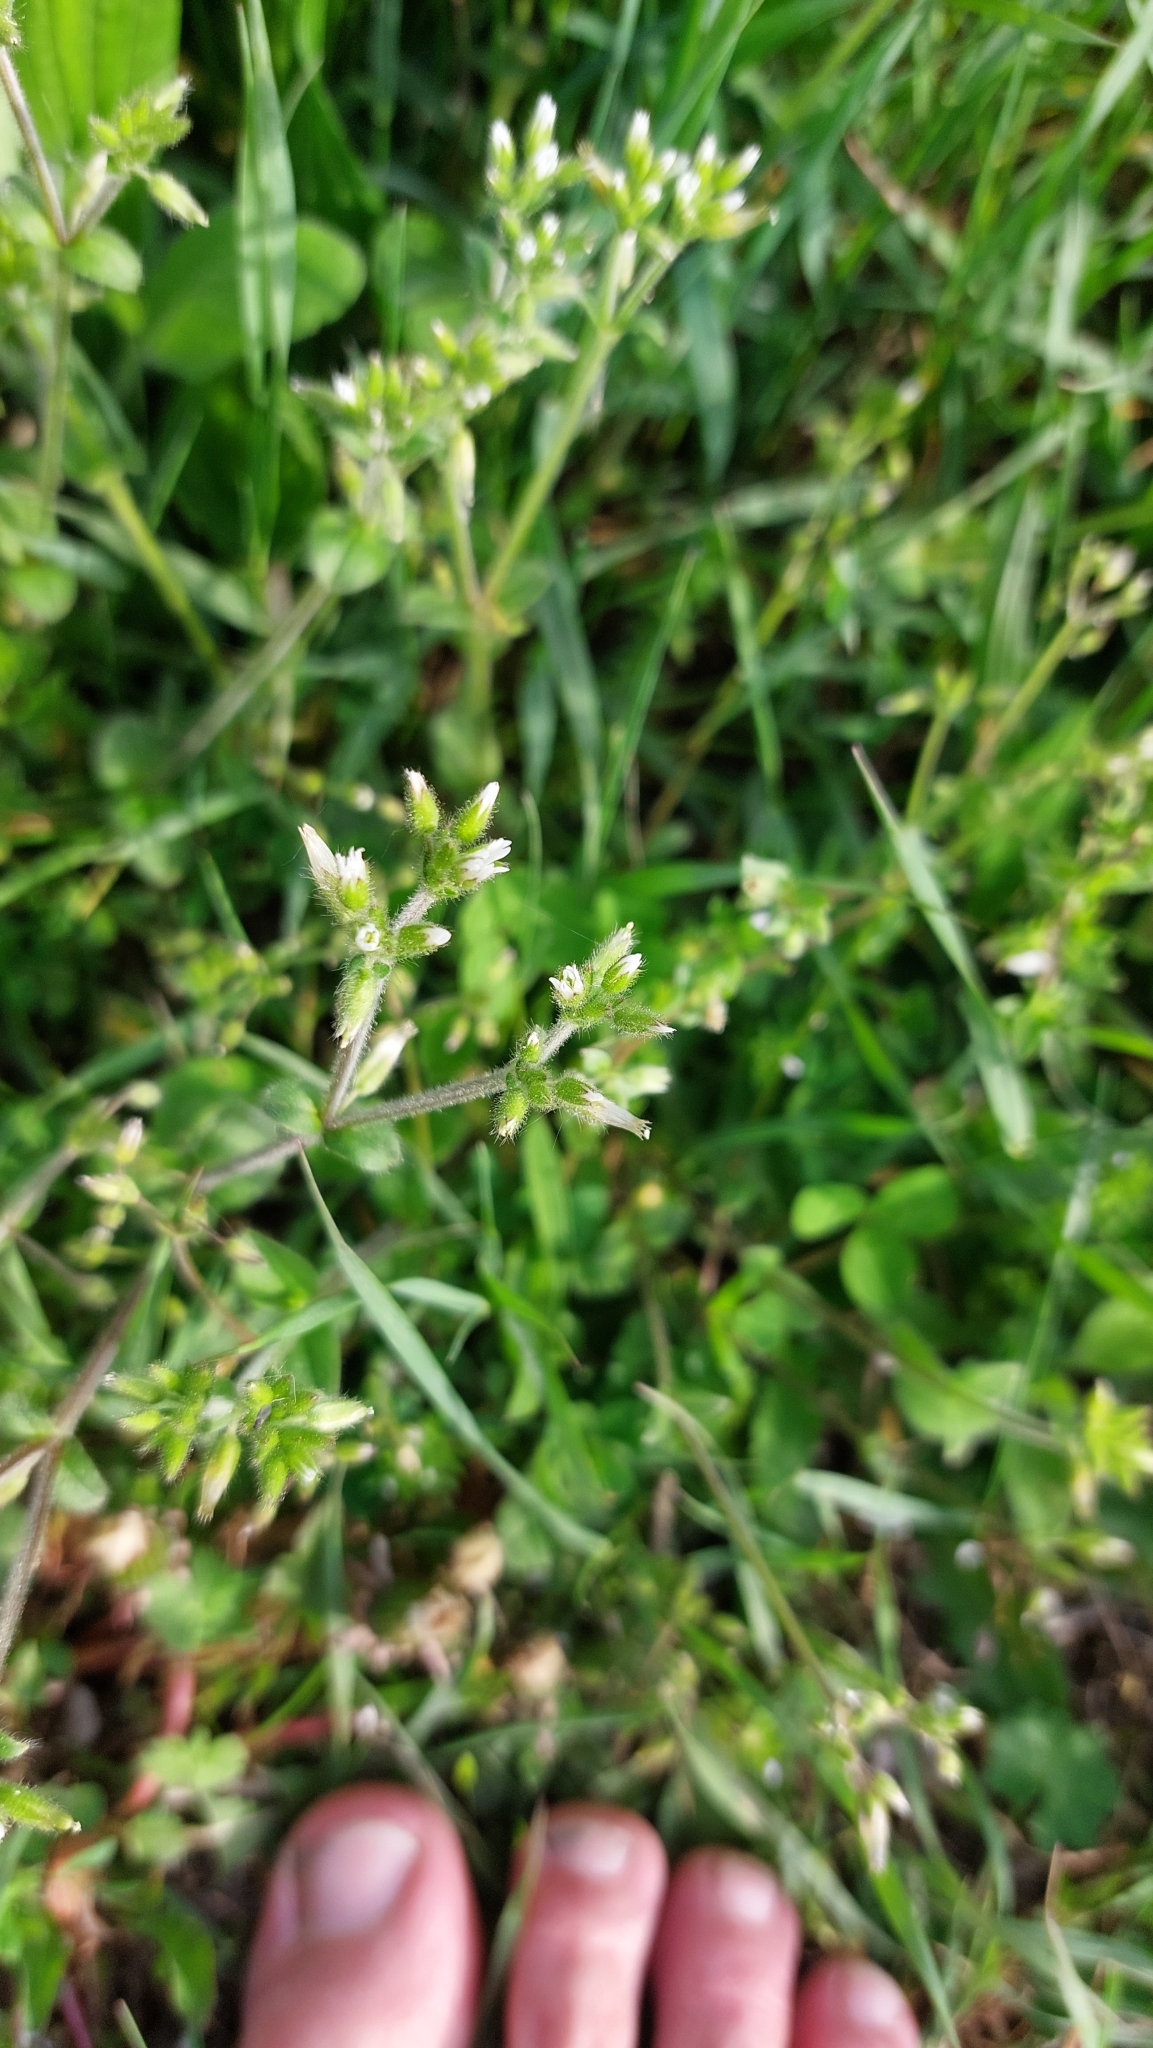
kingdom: Plantae
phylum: Tracheophyta
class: Magnoliopsida
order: Caryophyllales
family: Caryophyllaceae
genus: Cerastium
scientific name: Cerastium glomeratum
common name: Sticky chickweed
